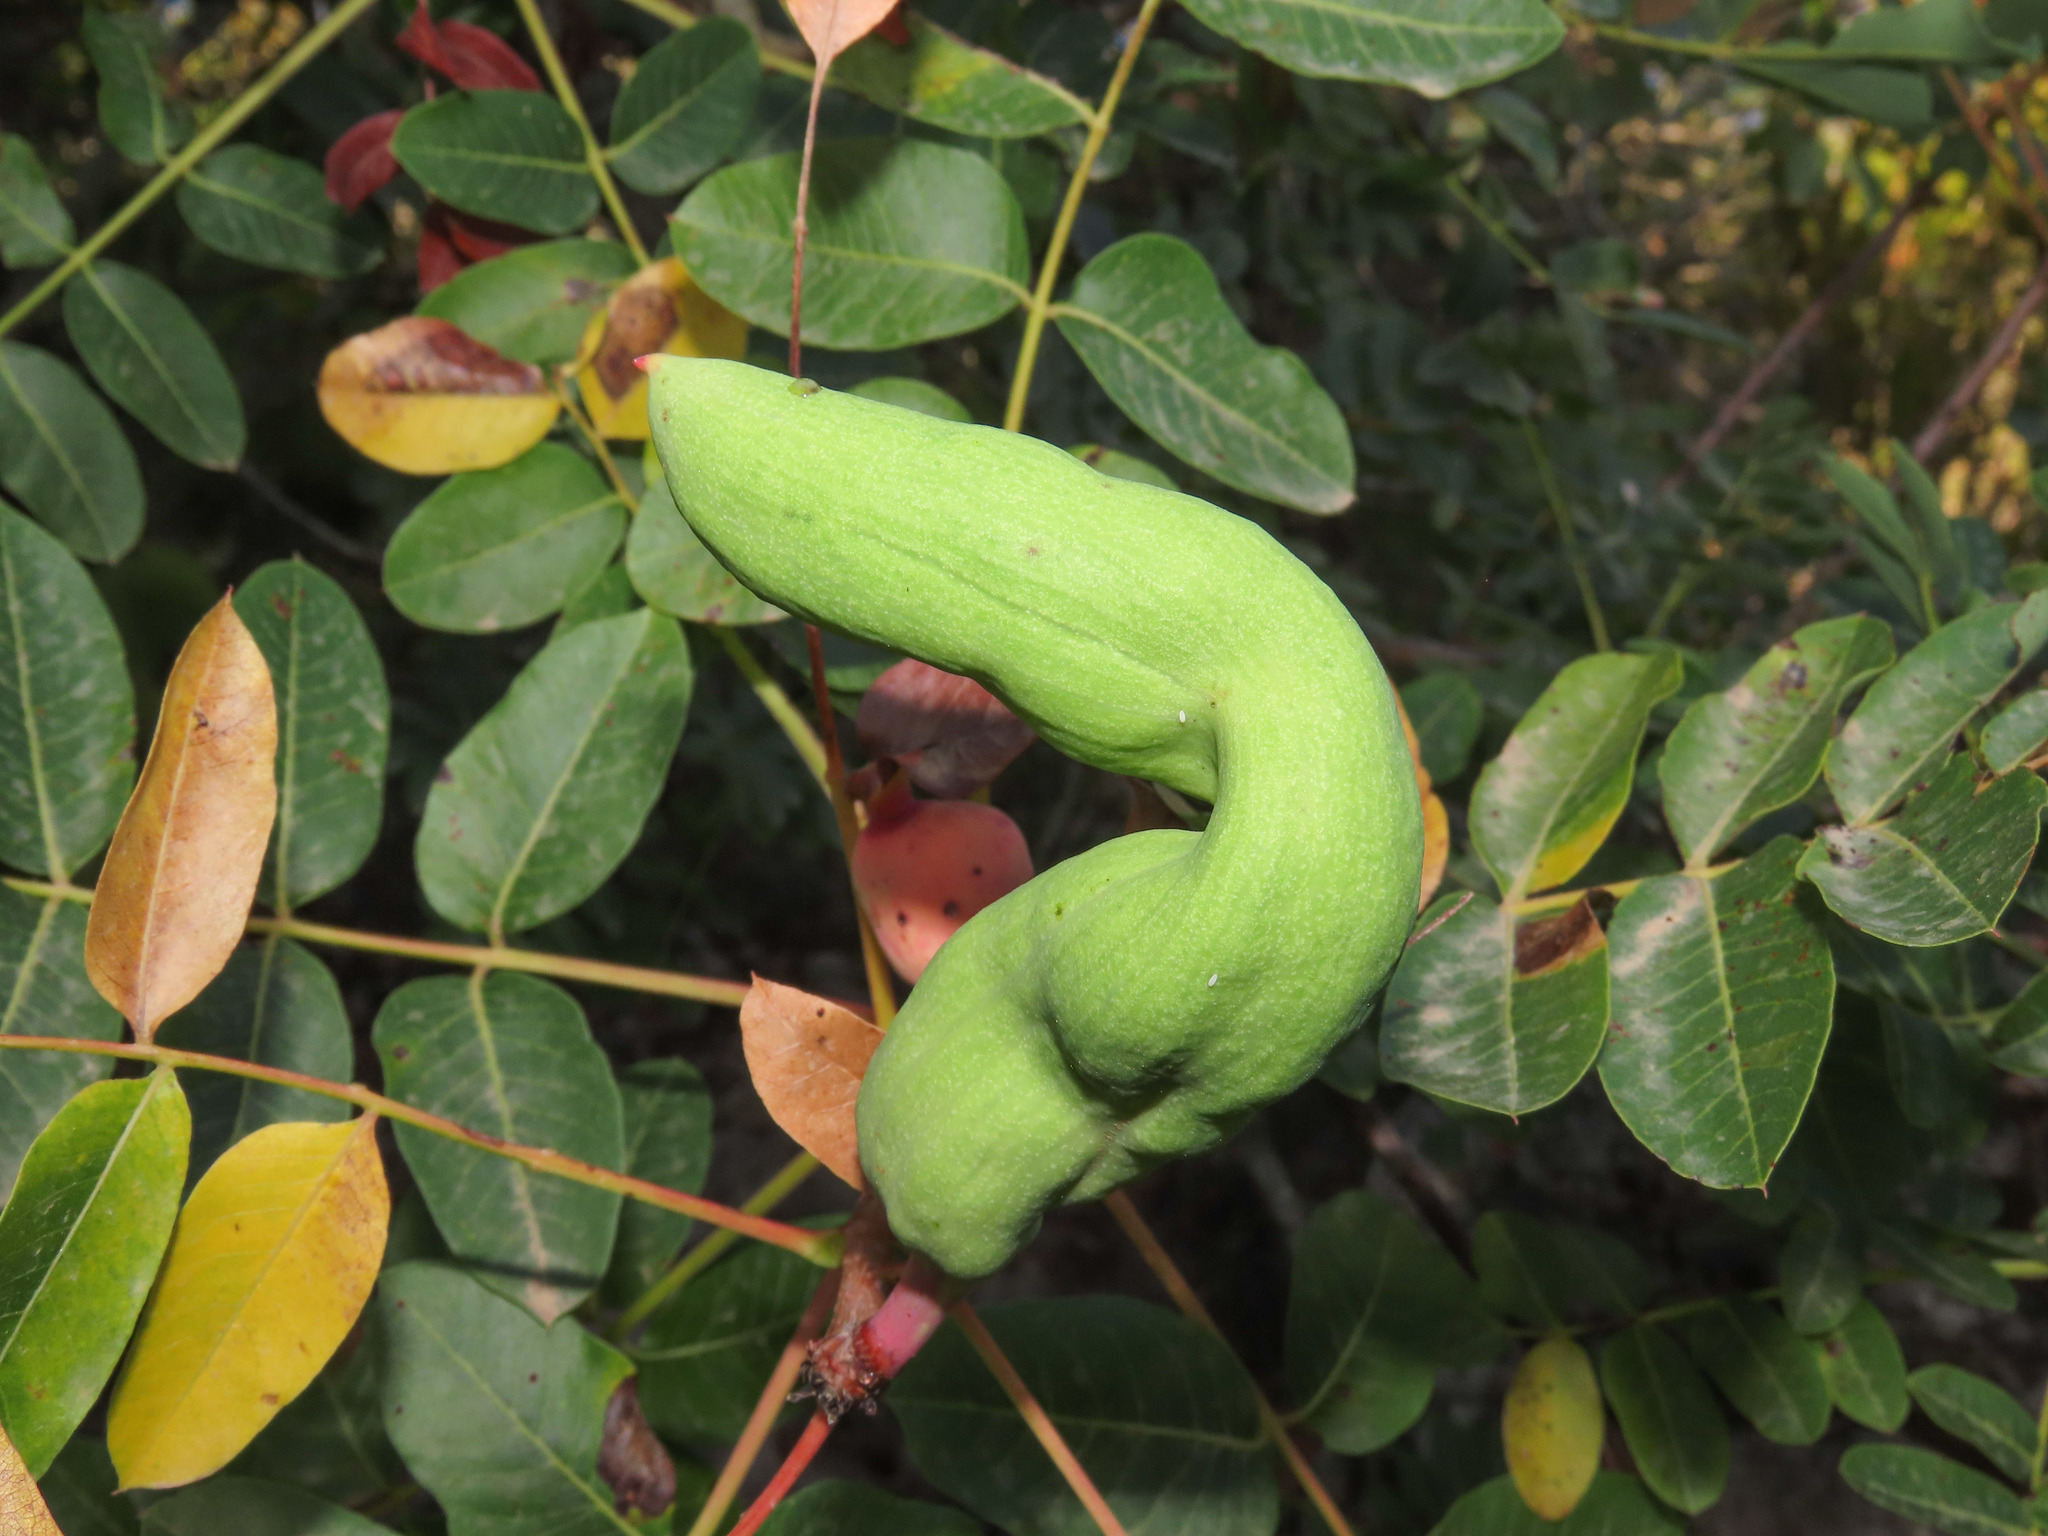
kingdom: Animalia
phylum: Arthropoda
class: Insecta
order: Hemiptera
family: Aphididae
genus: Baizongia
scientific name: Baizongia pistaciae
